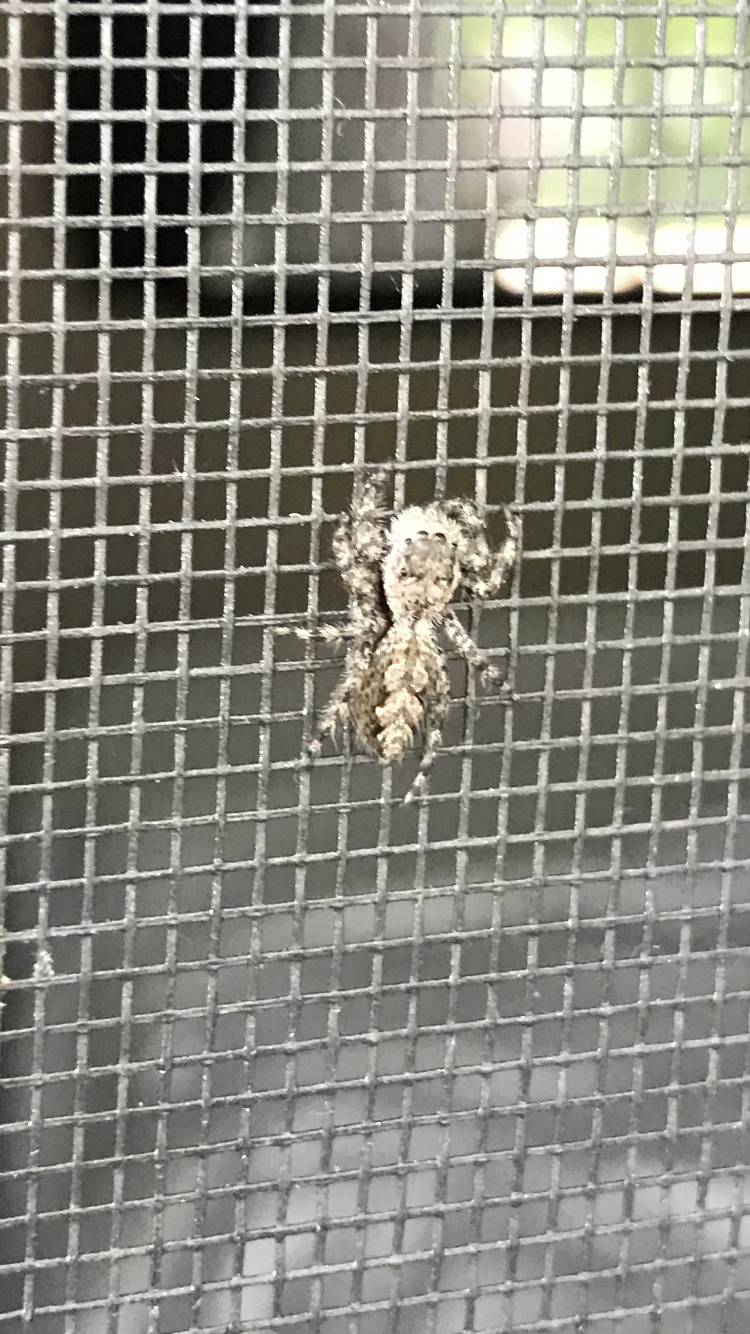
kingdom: Animalia
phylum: Arthropoda
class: Arachnida
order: Araneae
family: Salticidae
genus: Platycryptus
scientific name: Platycryptus undatus
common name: Tan jumping spider
